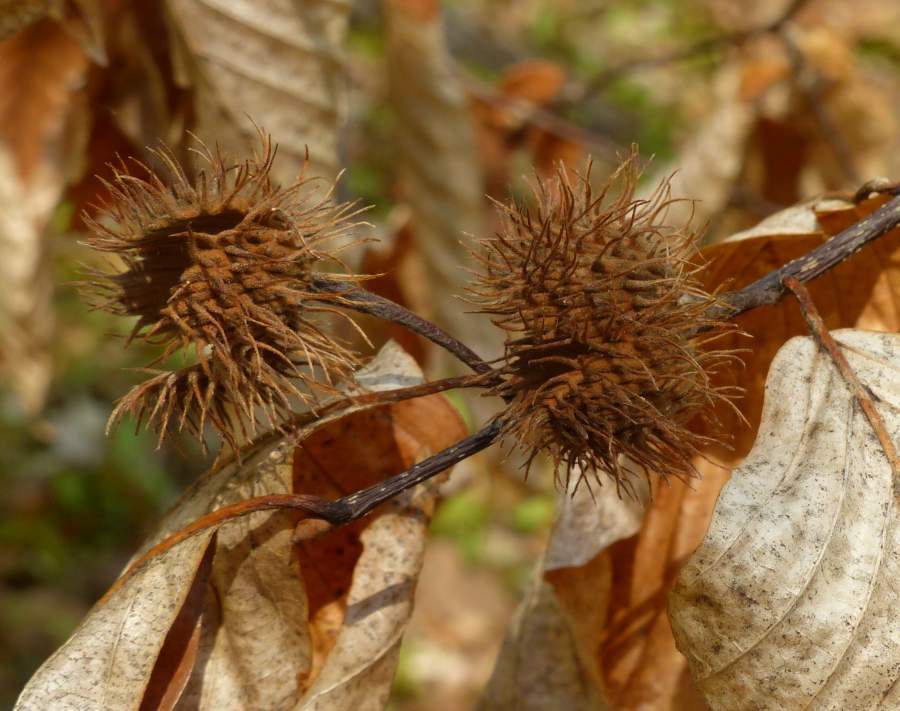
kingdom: Plantae
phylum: Tracheophyta
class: Magnoliopsida
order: Fagales
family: Fagaceae
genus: Fagus
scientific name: Fagus grandifolia
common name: American beech
